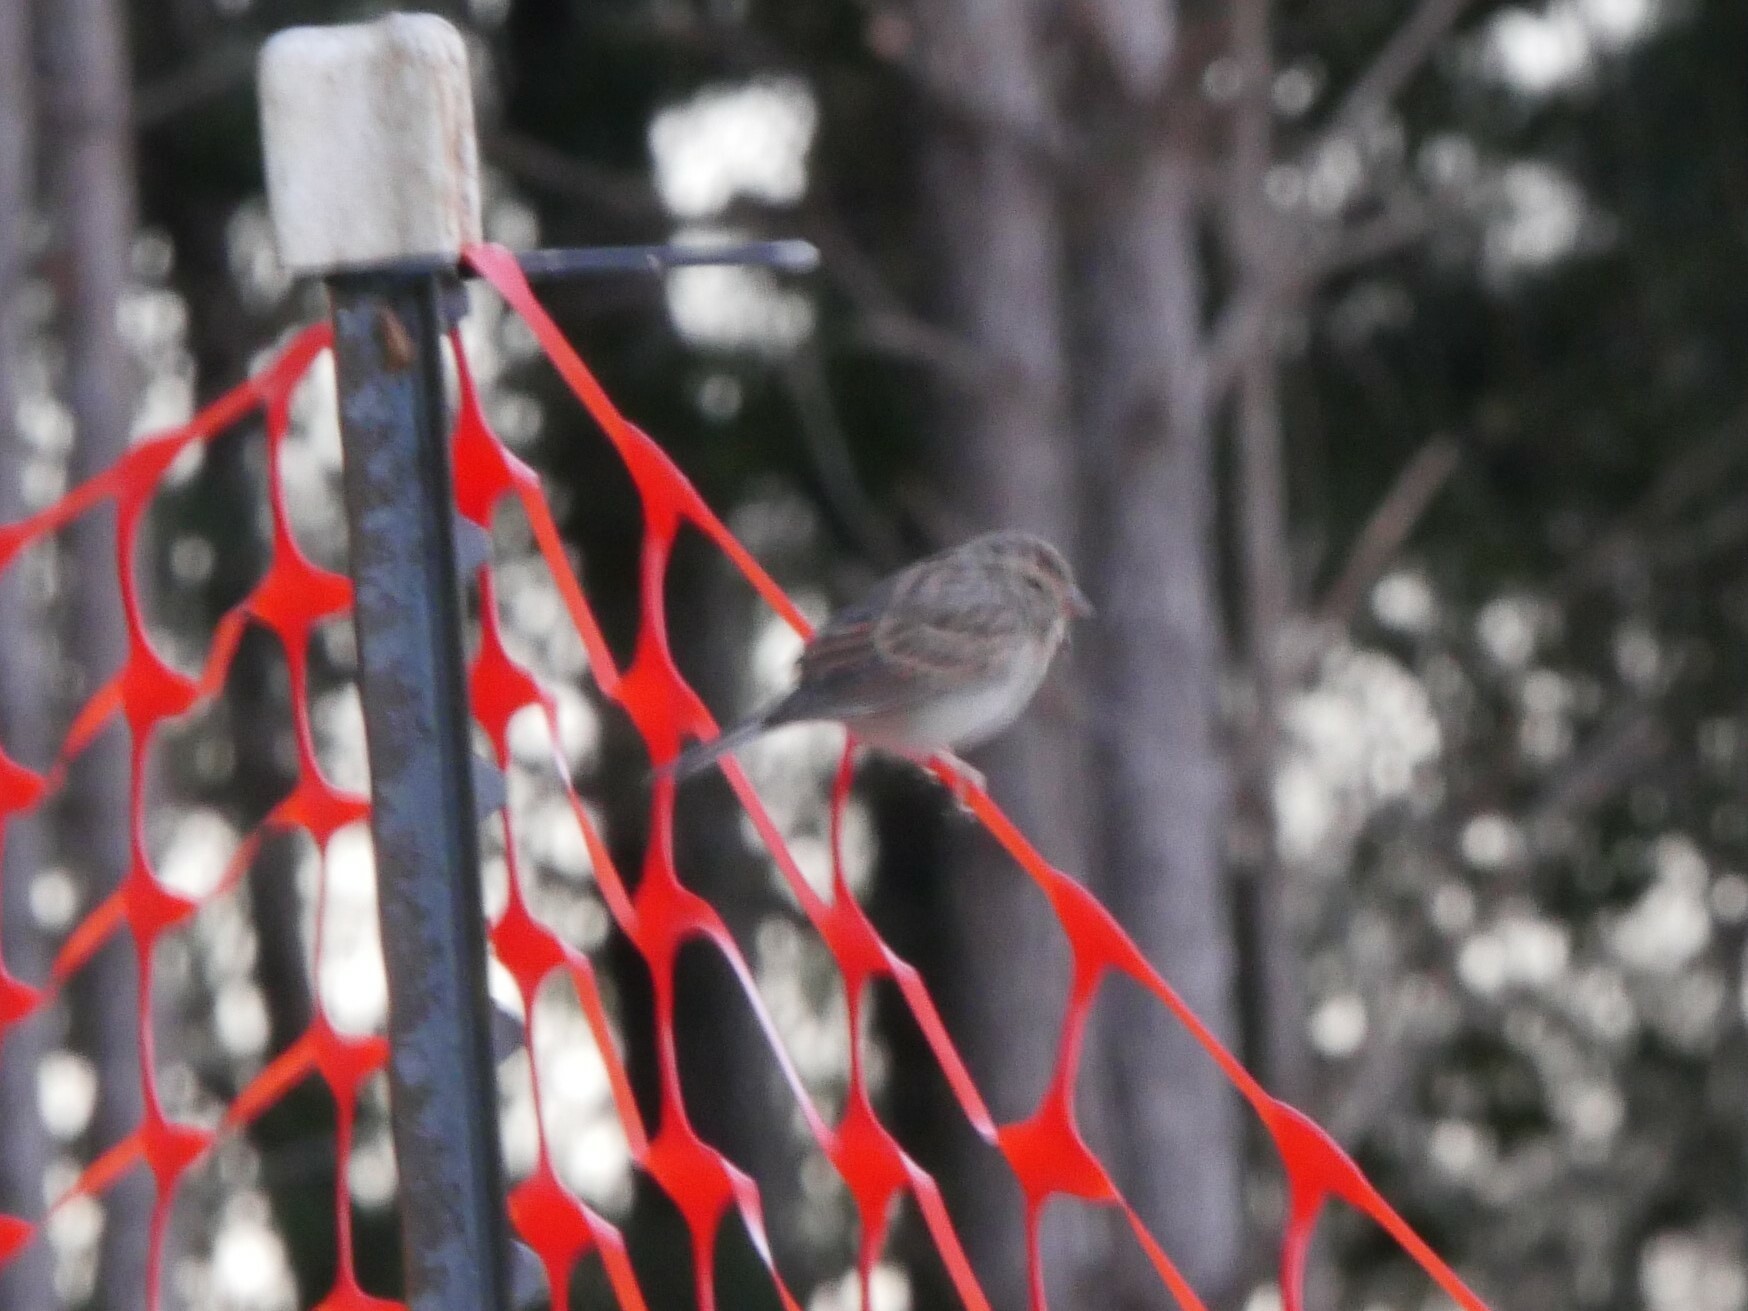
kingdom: Animalia
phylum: Chordata
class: Aves
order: Passeriformes
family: Passerellidae
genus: Spizella
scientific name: Spizella passerina
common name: Chipping sparrow
